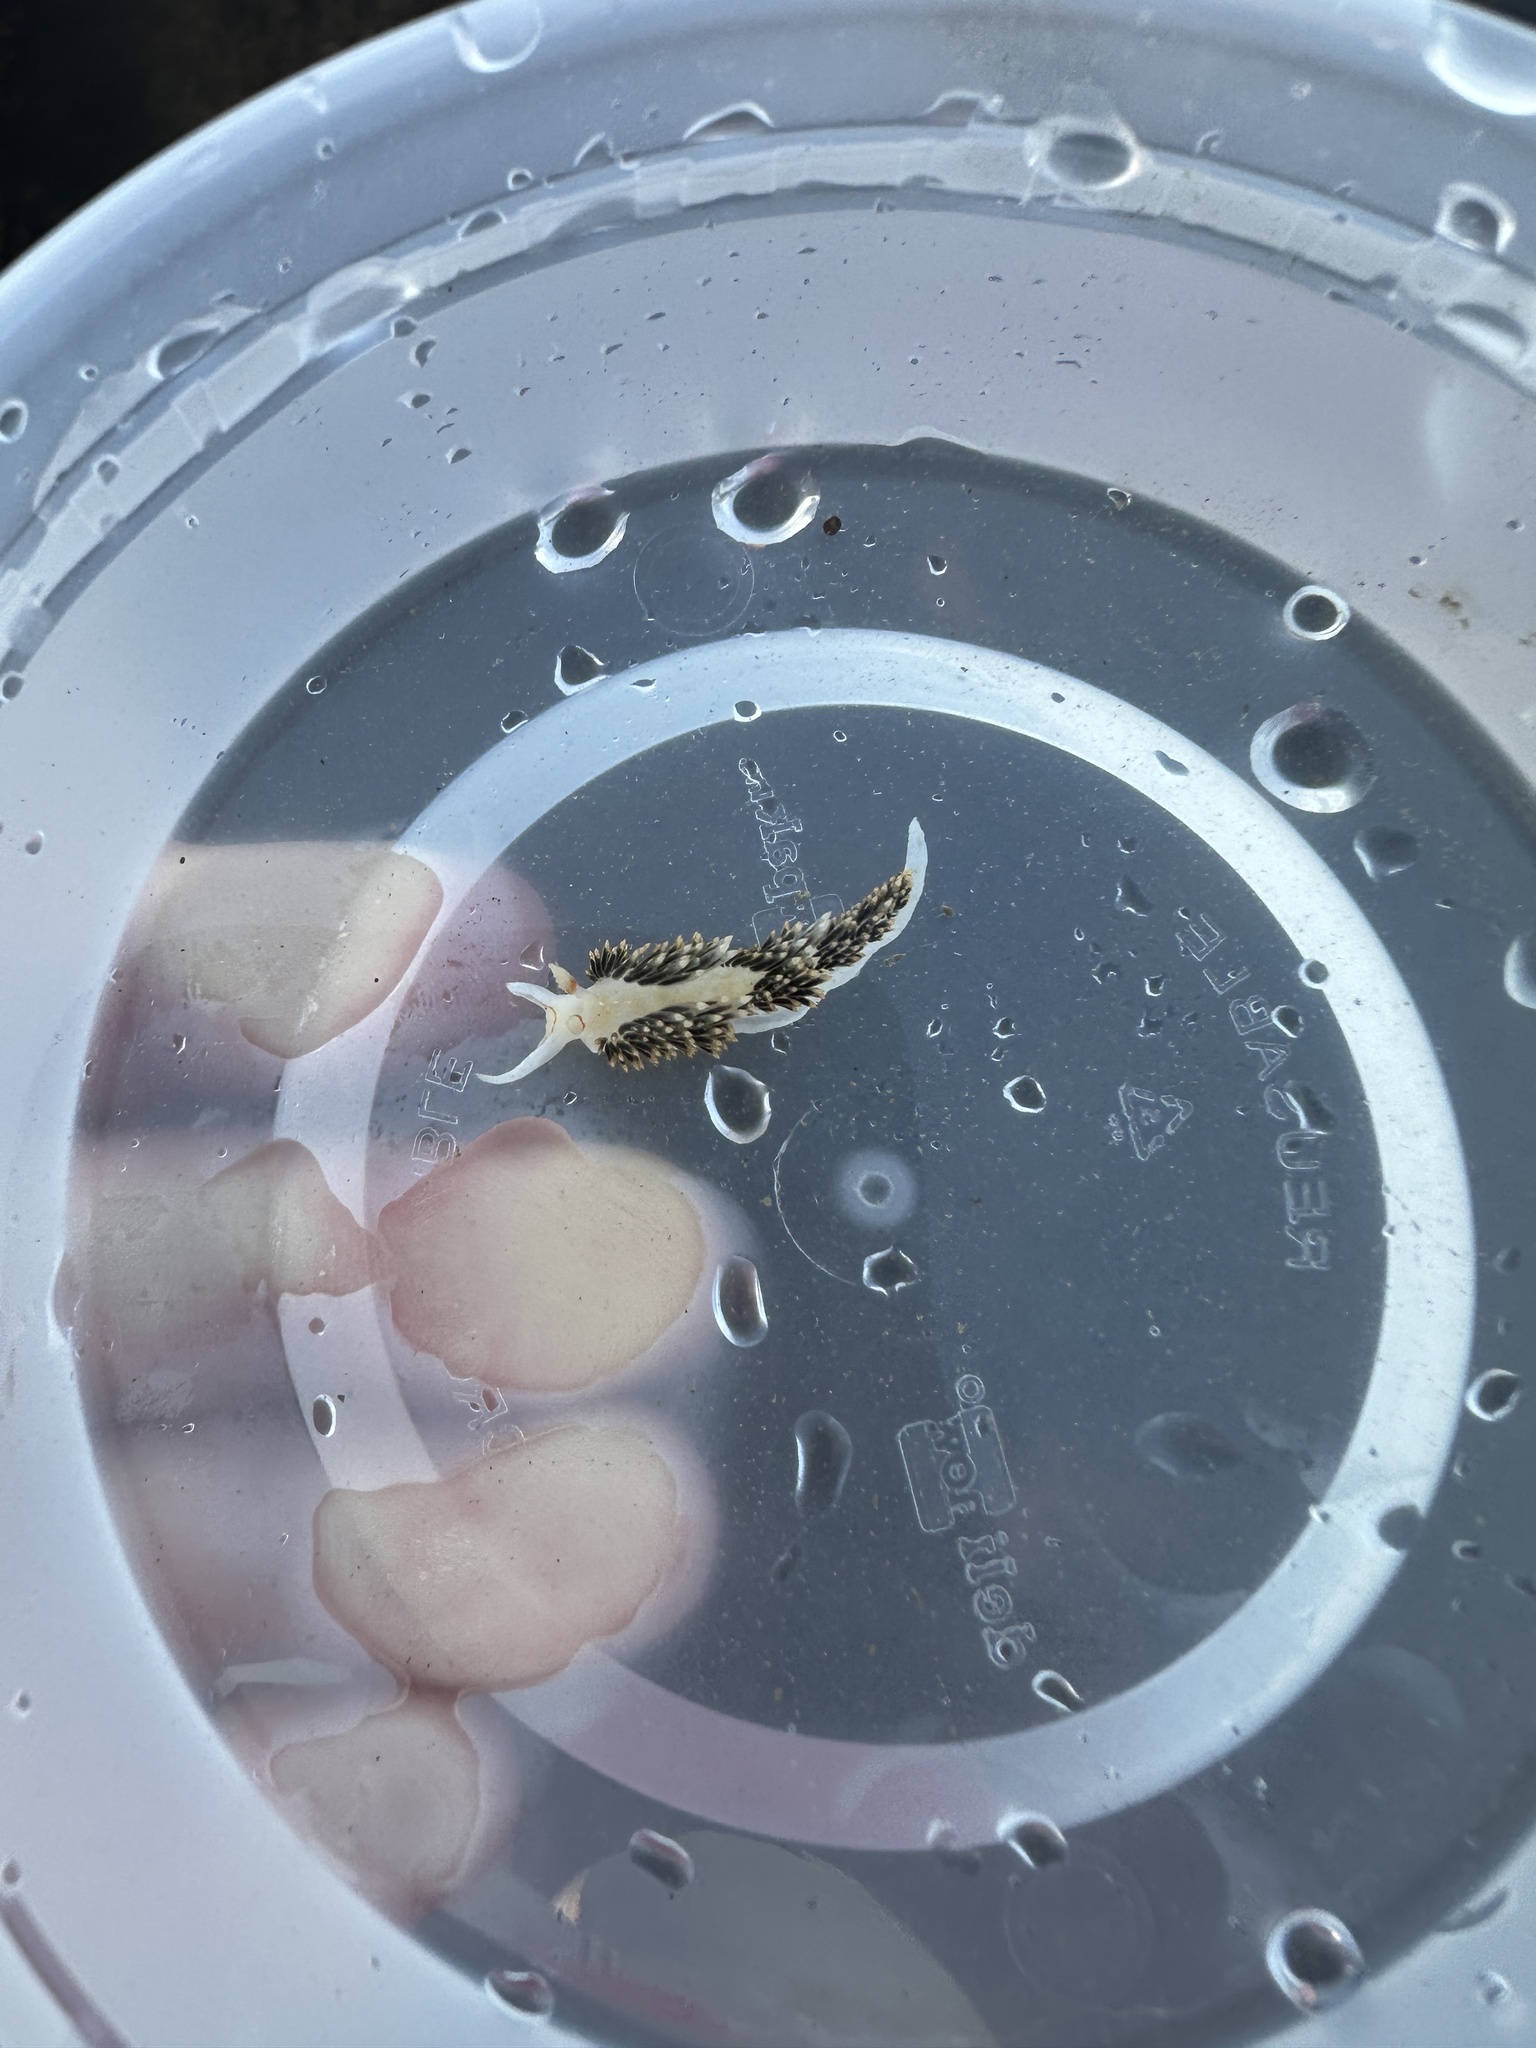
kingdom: Animalia
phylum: Mollusca
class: Gastropoda
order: Nudibranchia
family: Facelinidae
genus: Phidiana
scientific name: Phidiana hiltoni
